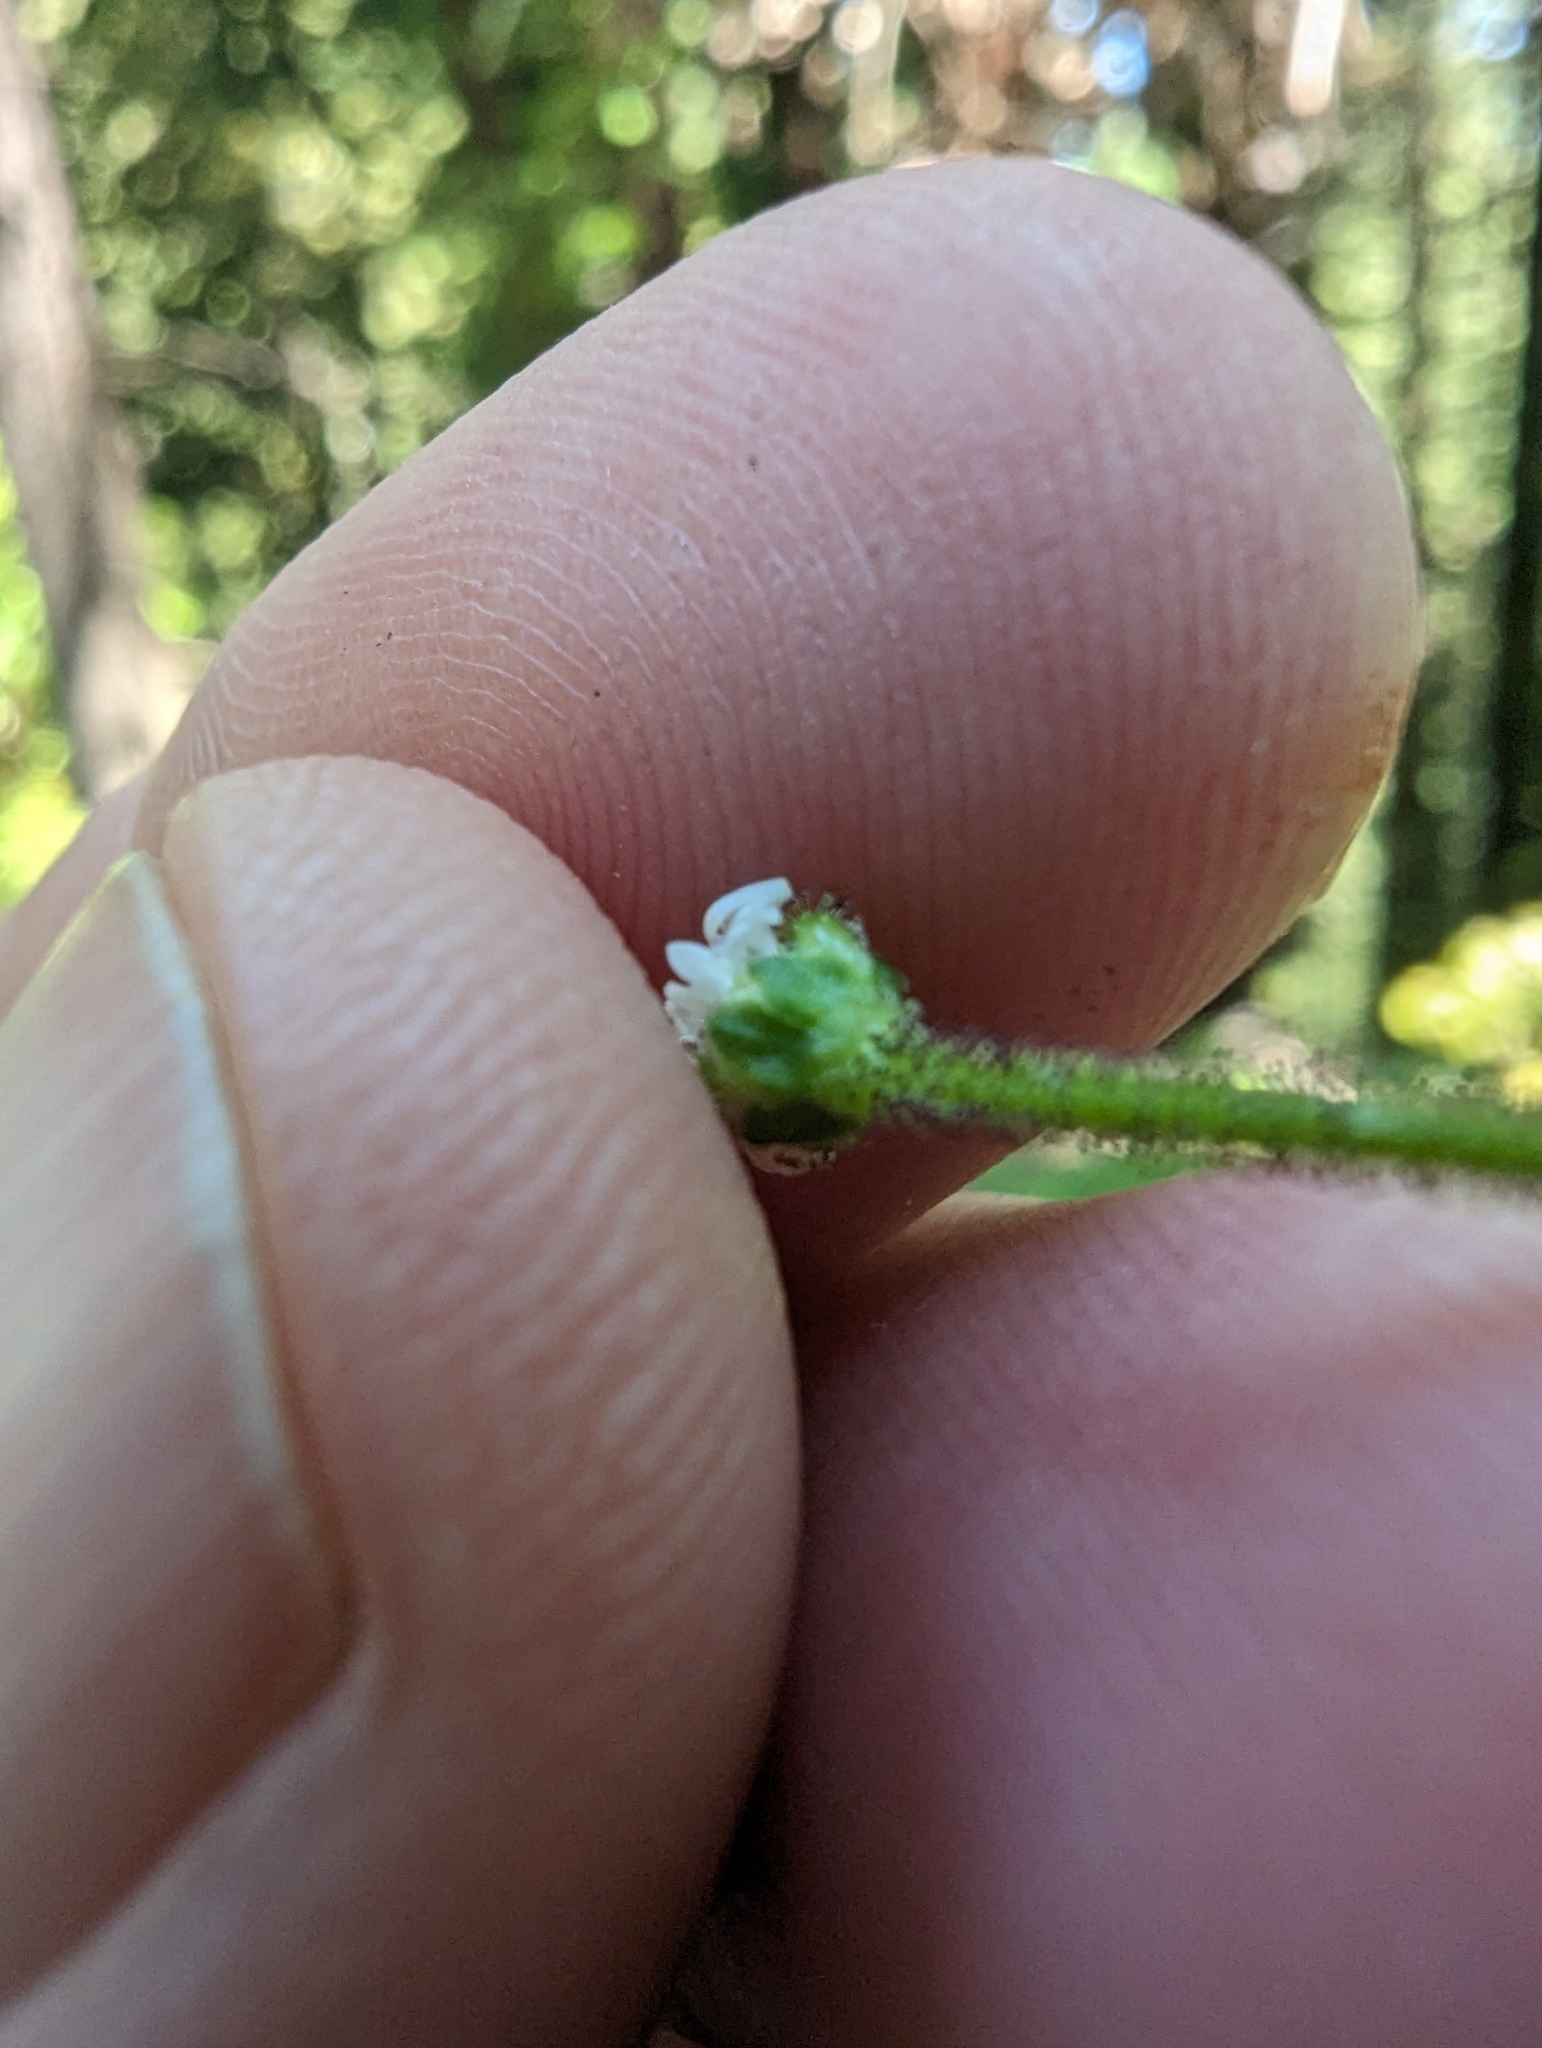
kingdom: Plantae
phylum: Tracheophyta
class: Magnoliopsida
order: Asterales
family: Asteraceae
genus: Adenocaulon
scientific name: Adenocaulon bicolor
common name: Trailplant
